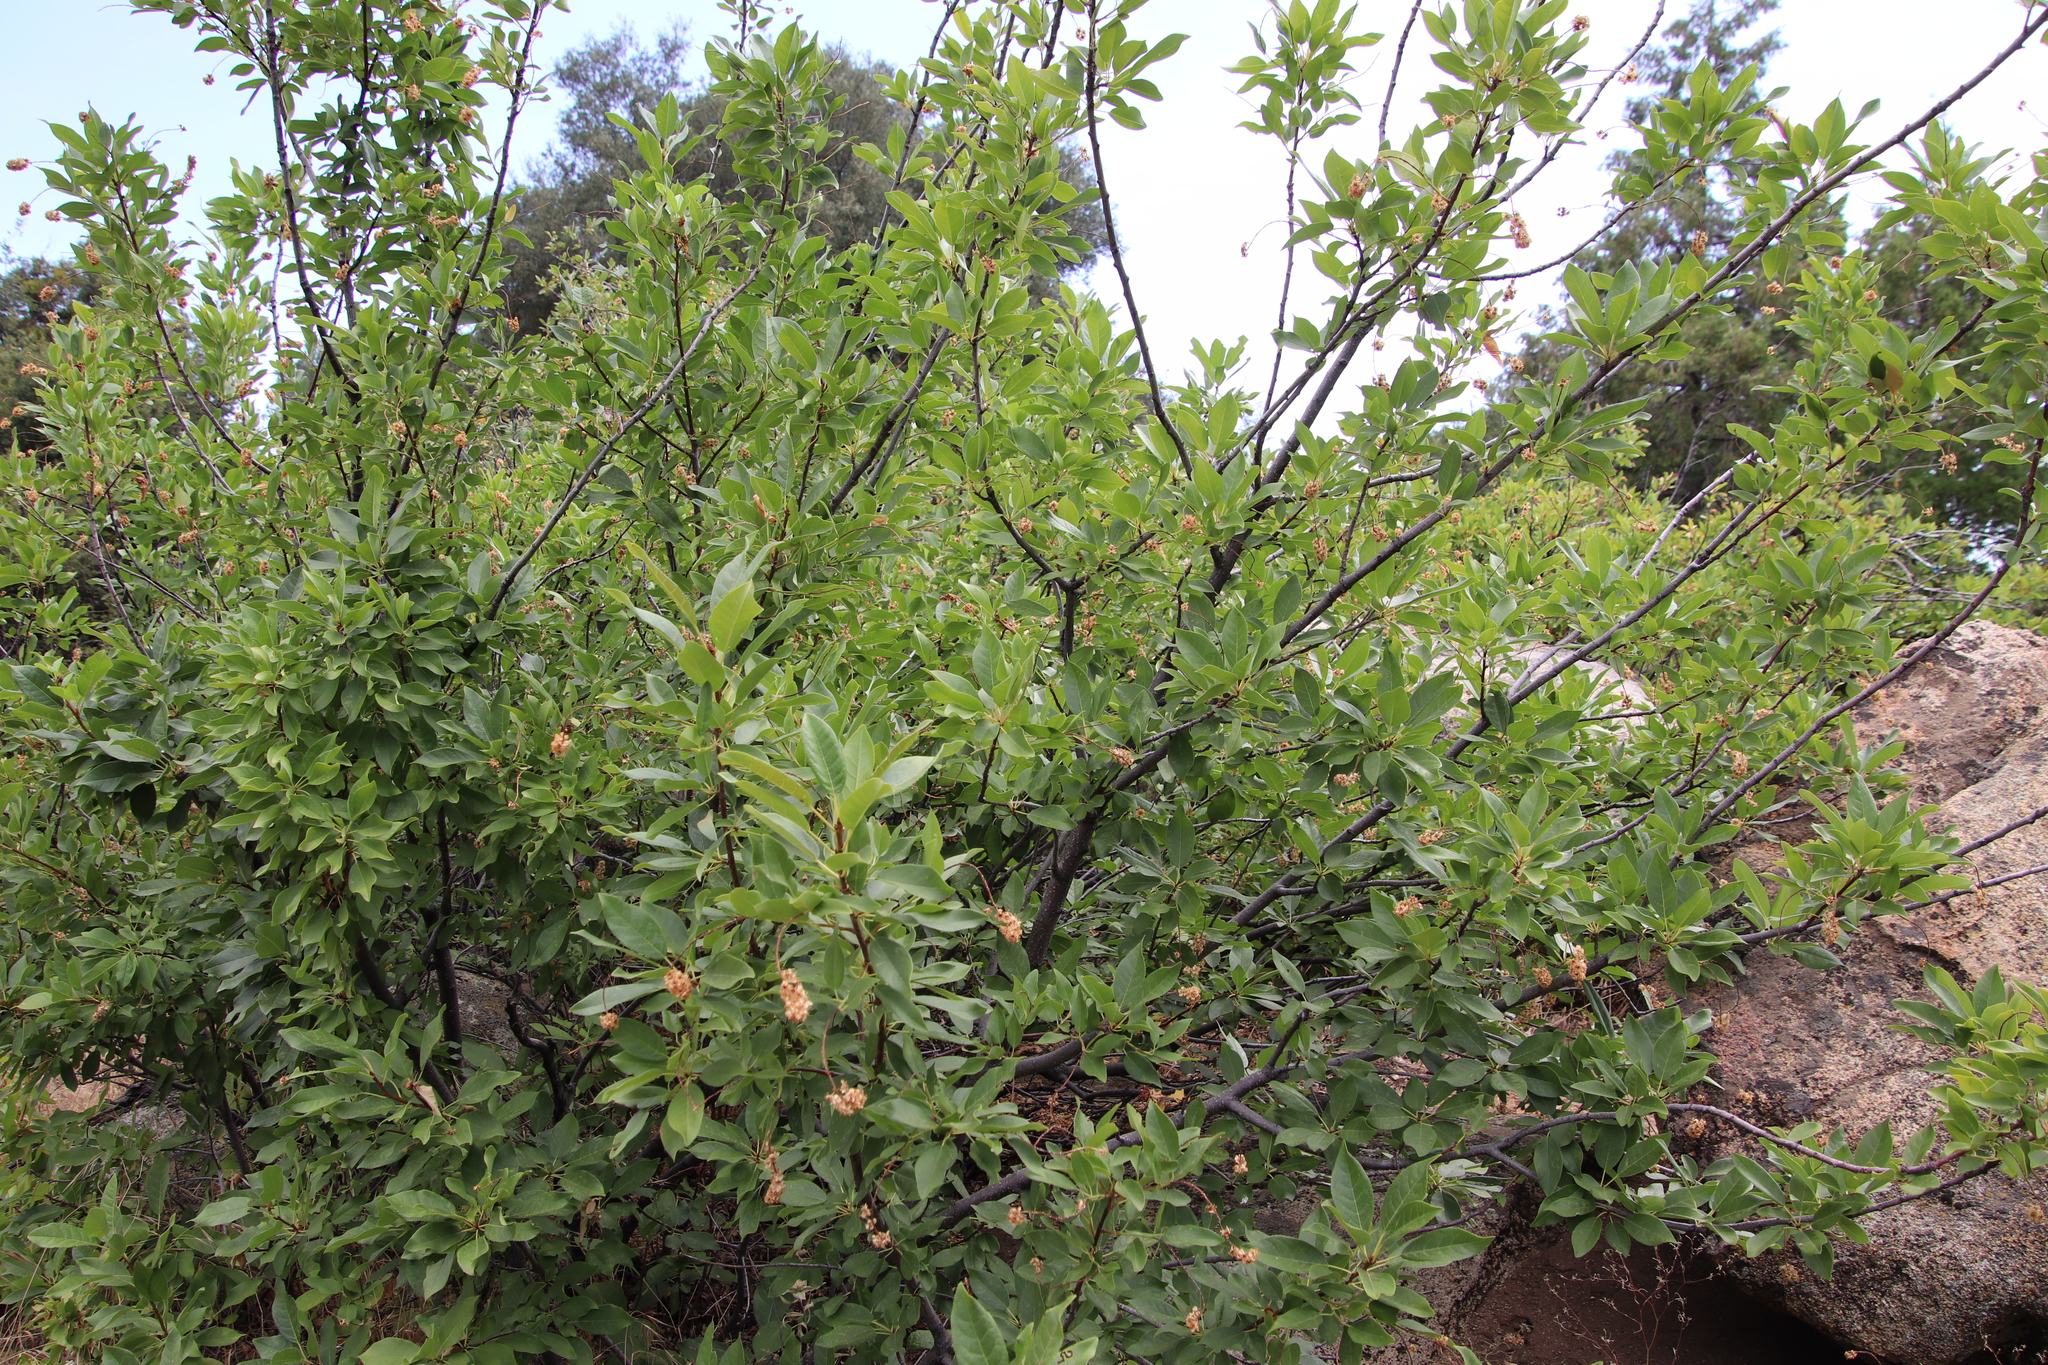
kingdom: Plantae
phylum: Tracheophyta
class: Magnoliopsida
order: Rosales
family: Rosaceae
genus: Prunus
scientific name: Prunus virginiana
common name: Chokecherry
